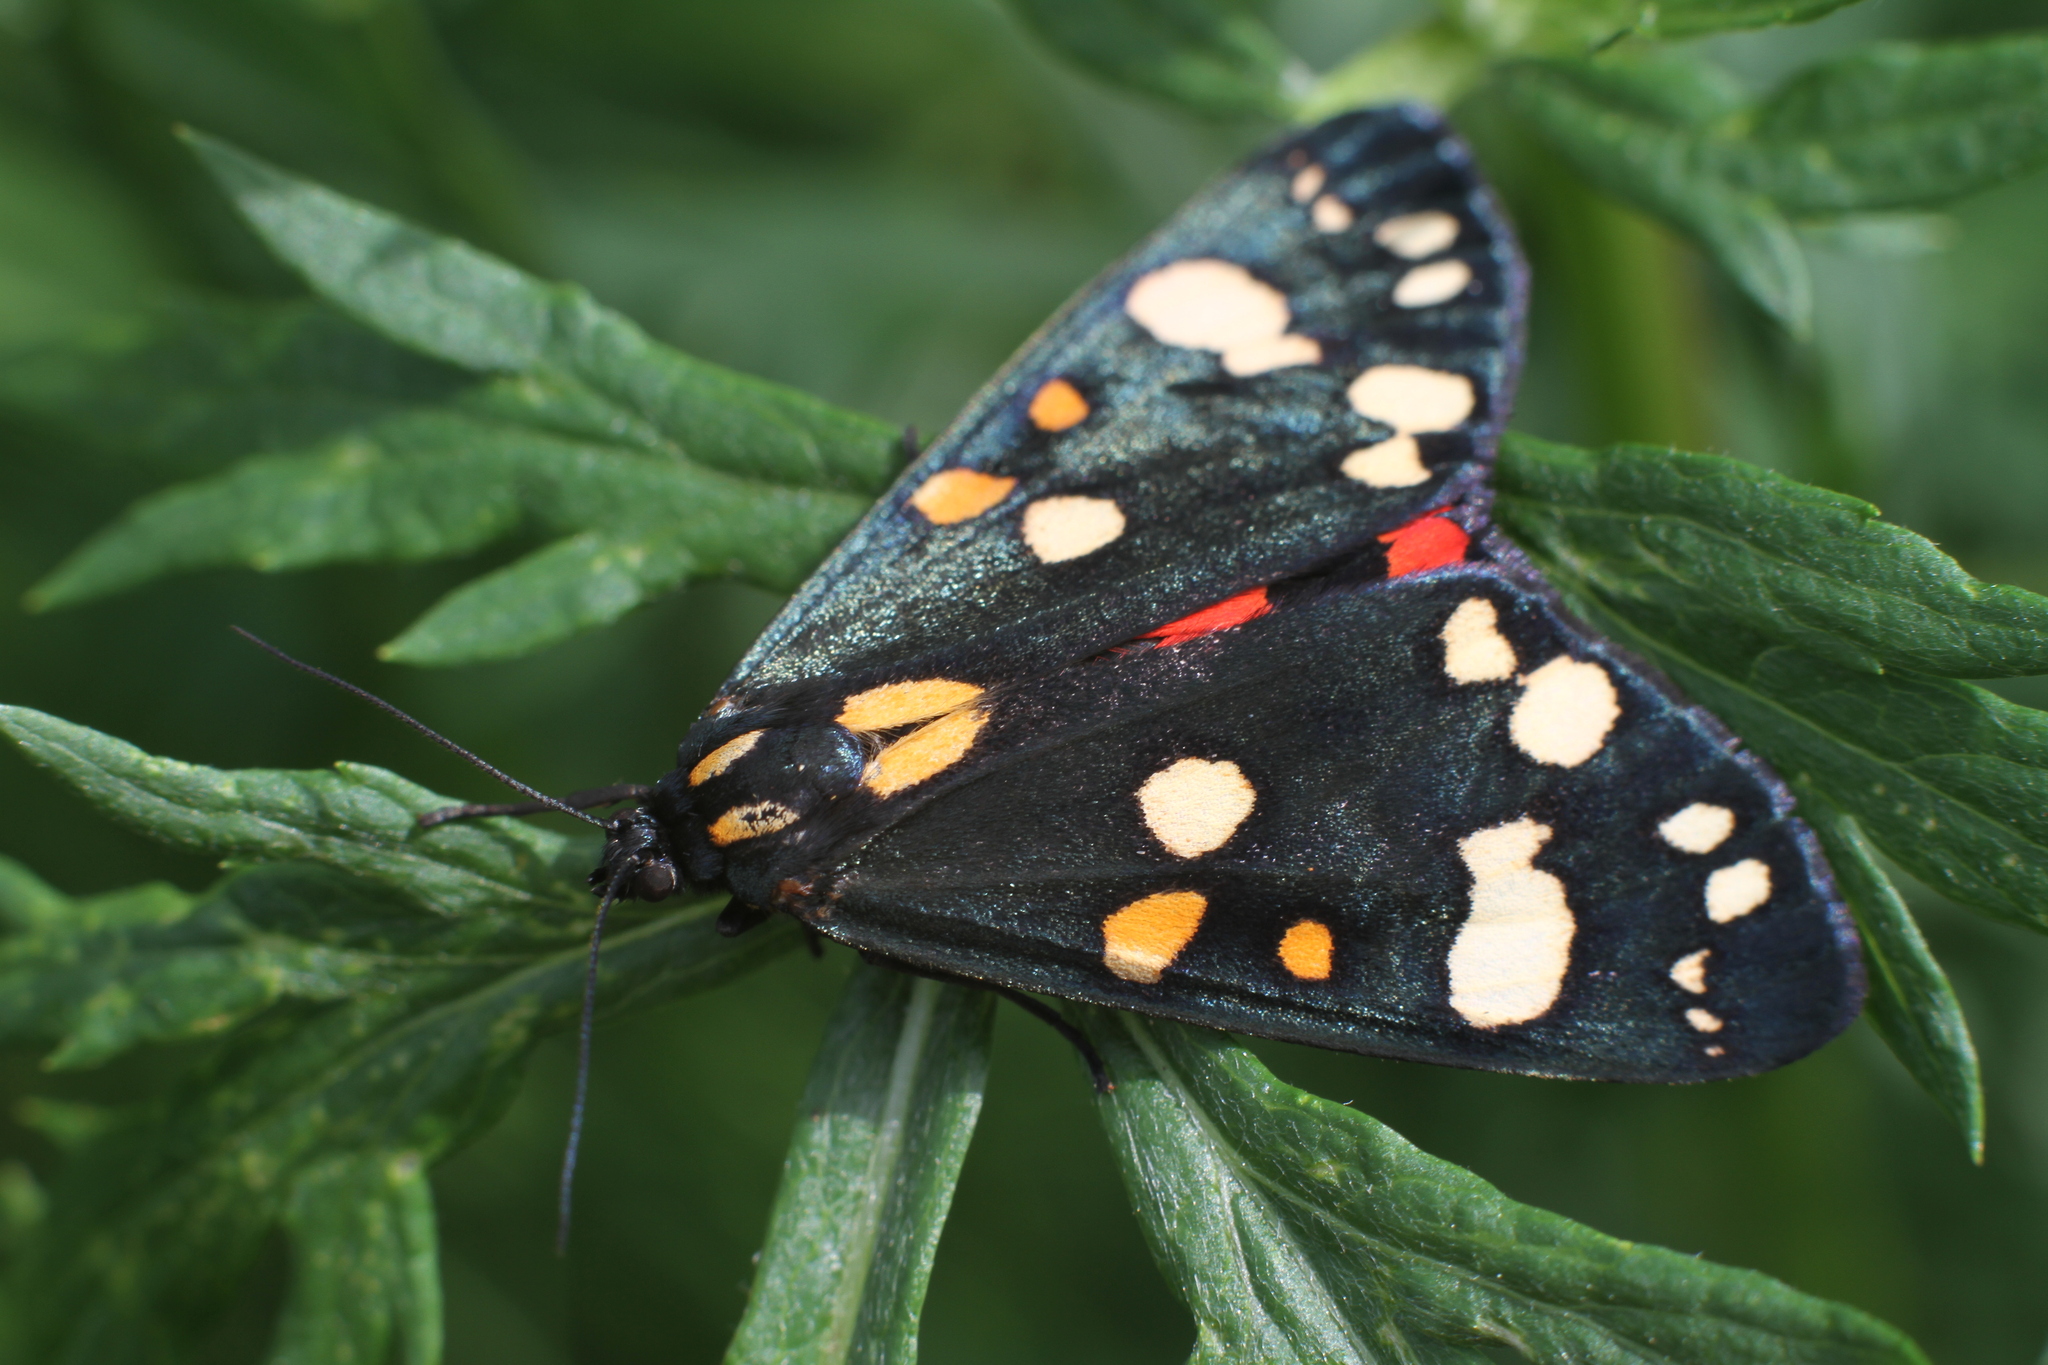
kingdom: Animalia
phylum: Arthropoda
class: Insecta
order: Lepidoptera
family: Erebidae
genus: Callimorpha
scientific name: Callimorpha dominula
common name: Scarlet tiger
